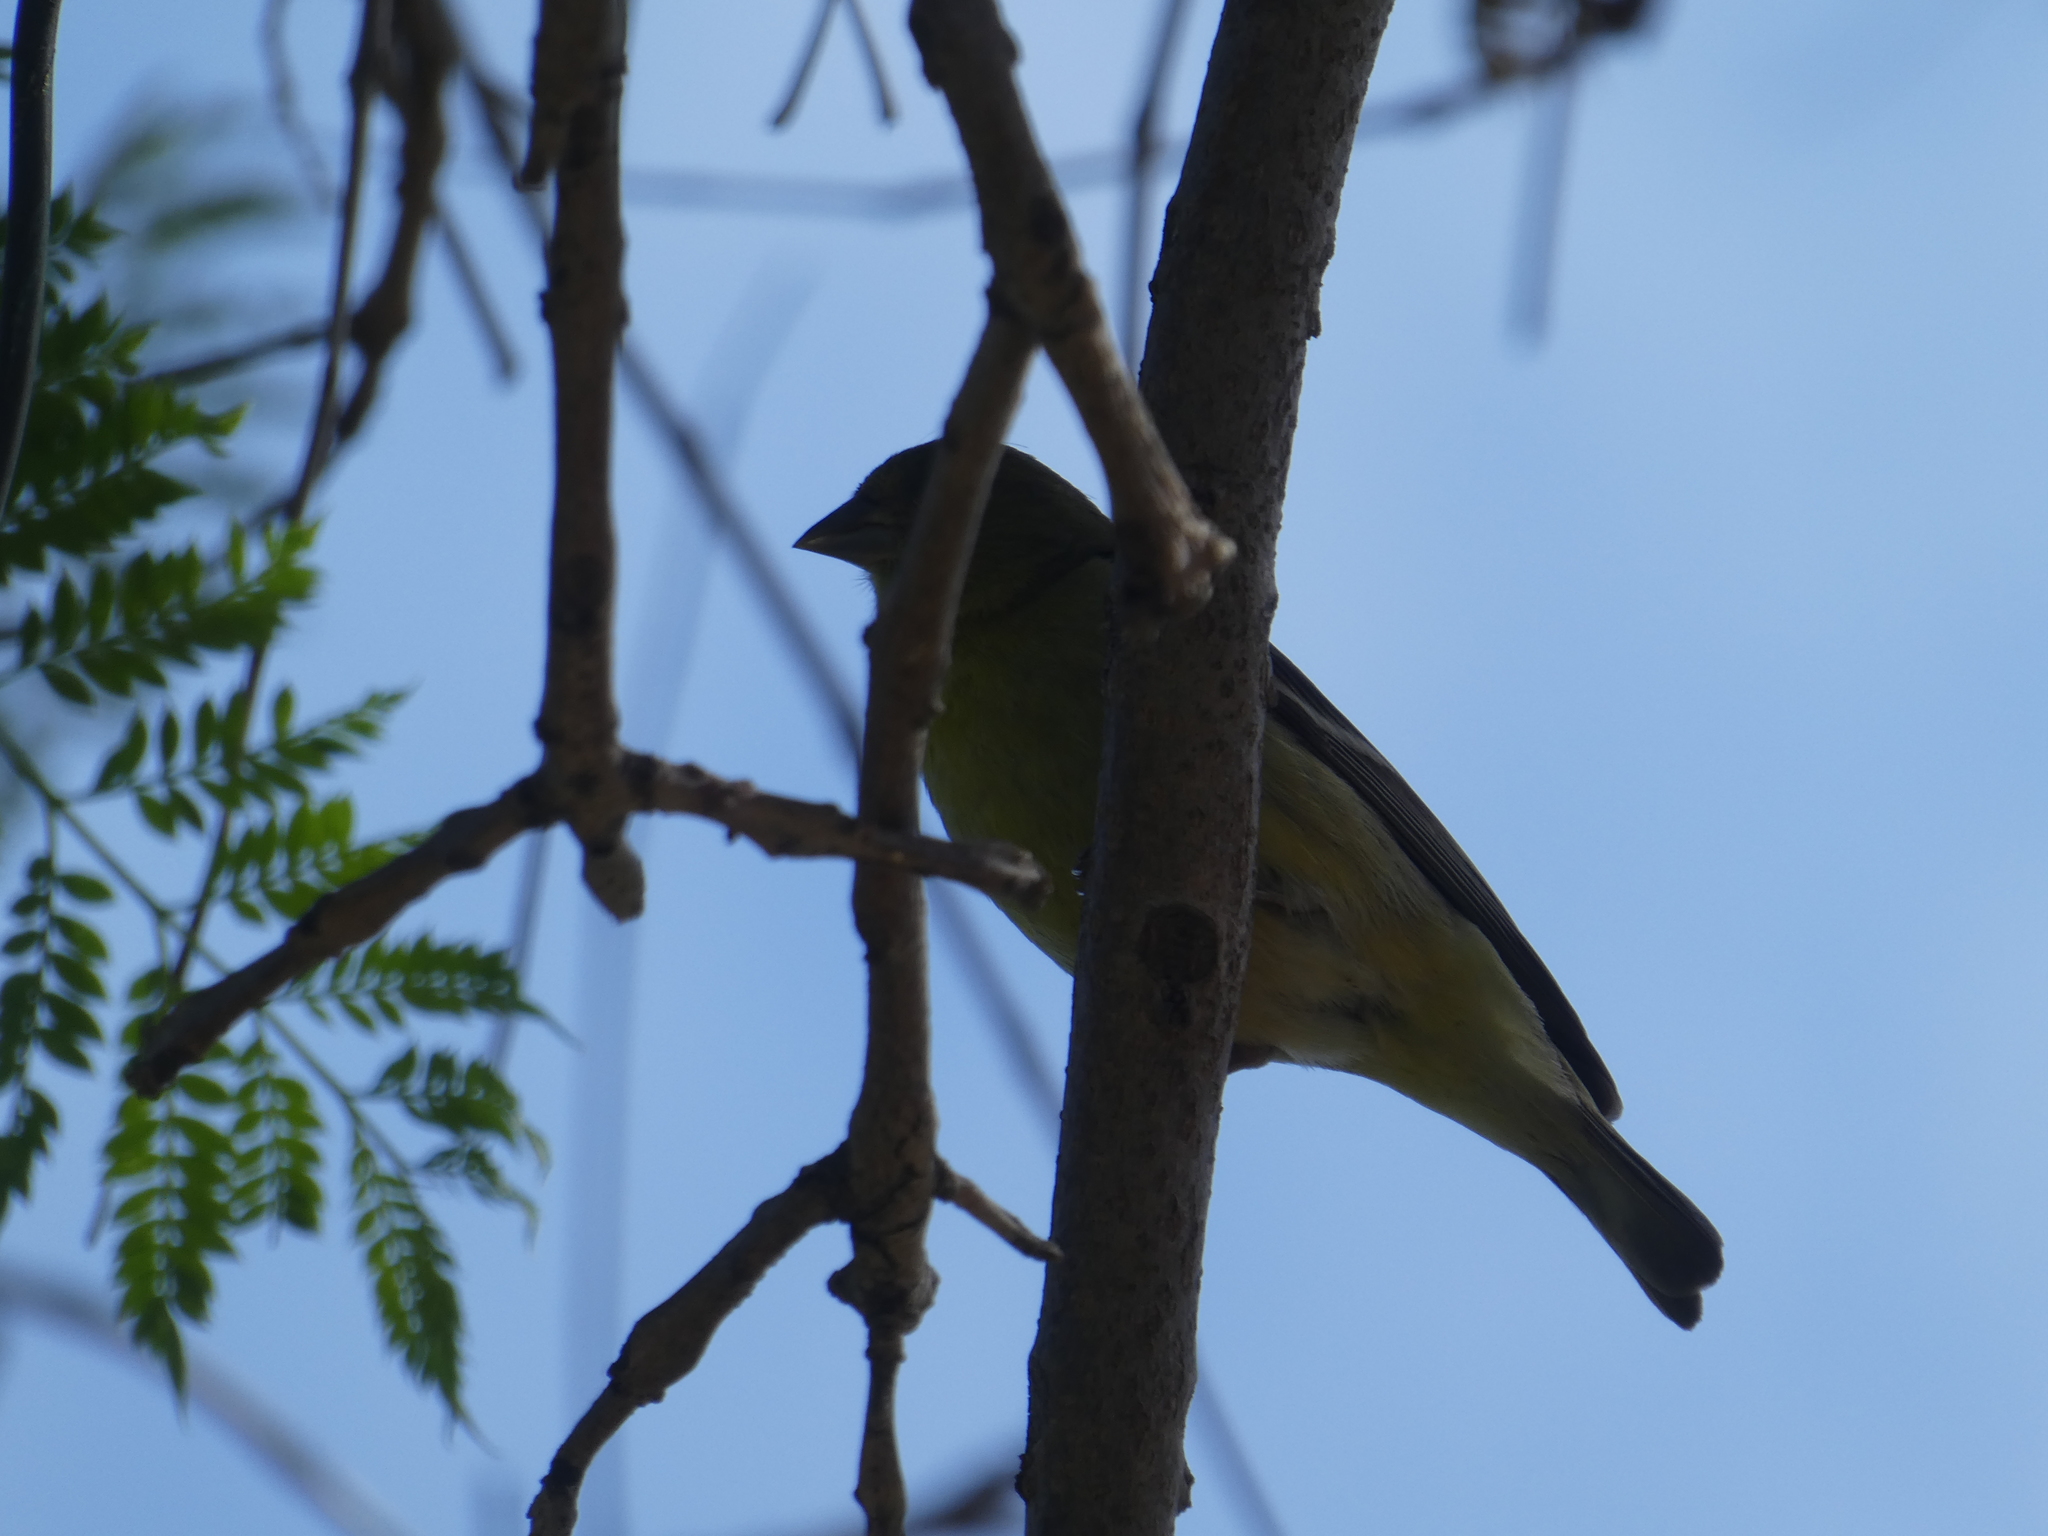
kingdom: Animalia
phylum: Chordata
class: Aves
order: Passeriformes
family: Fringillidae
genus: Spinus
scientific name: Spinus psaltria
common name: Lesser goldfinch
